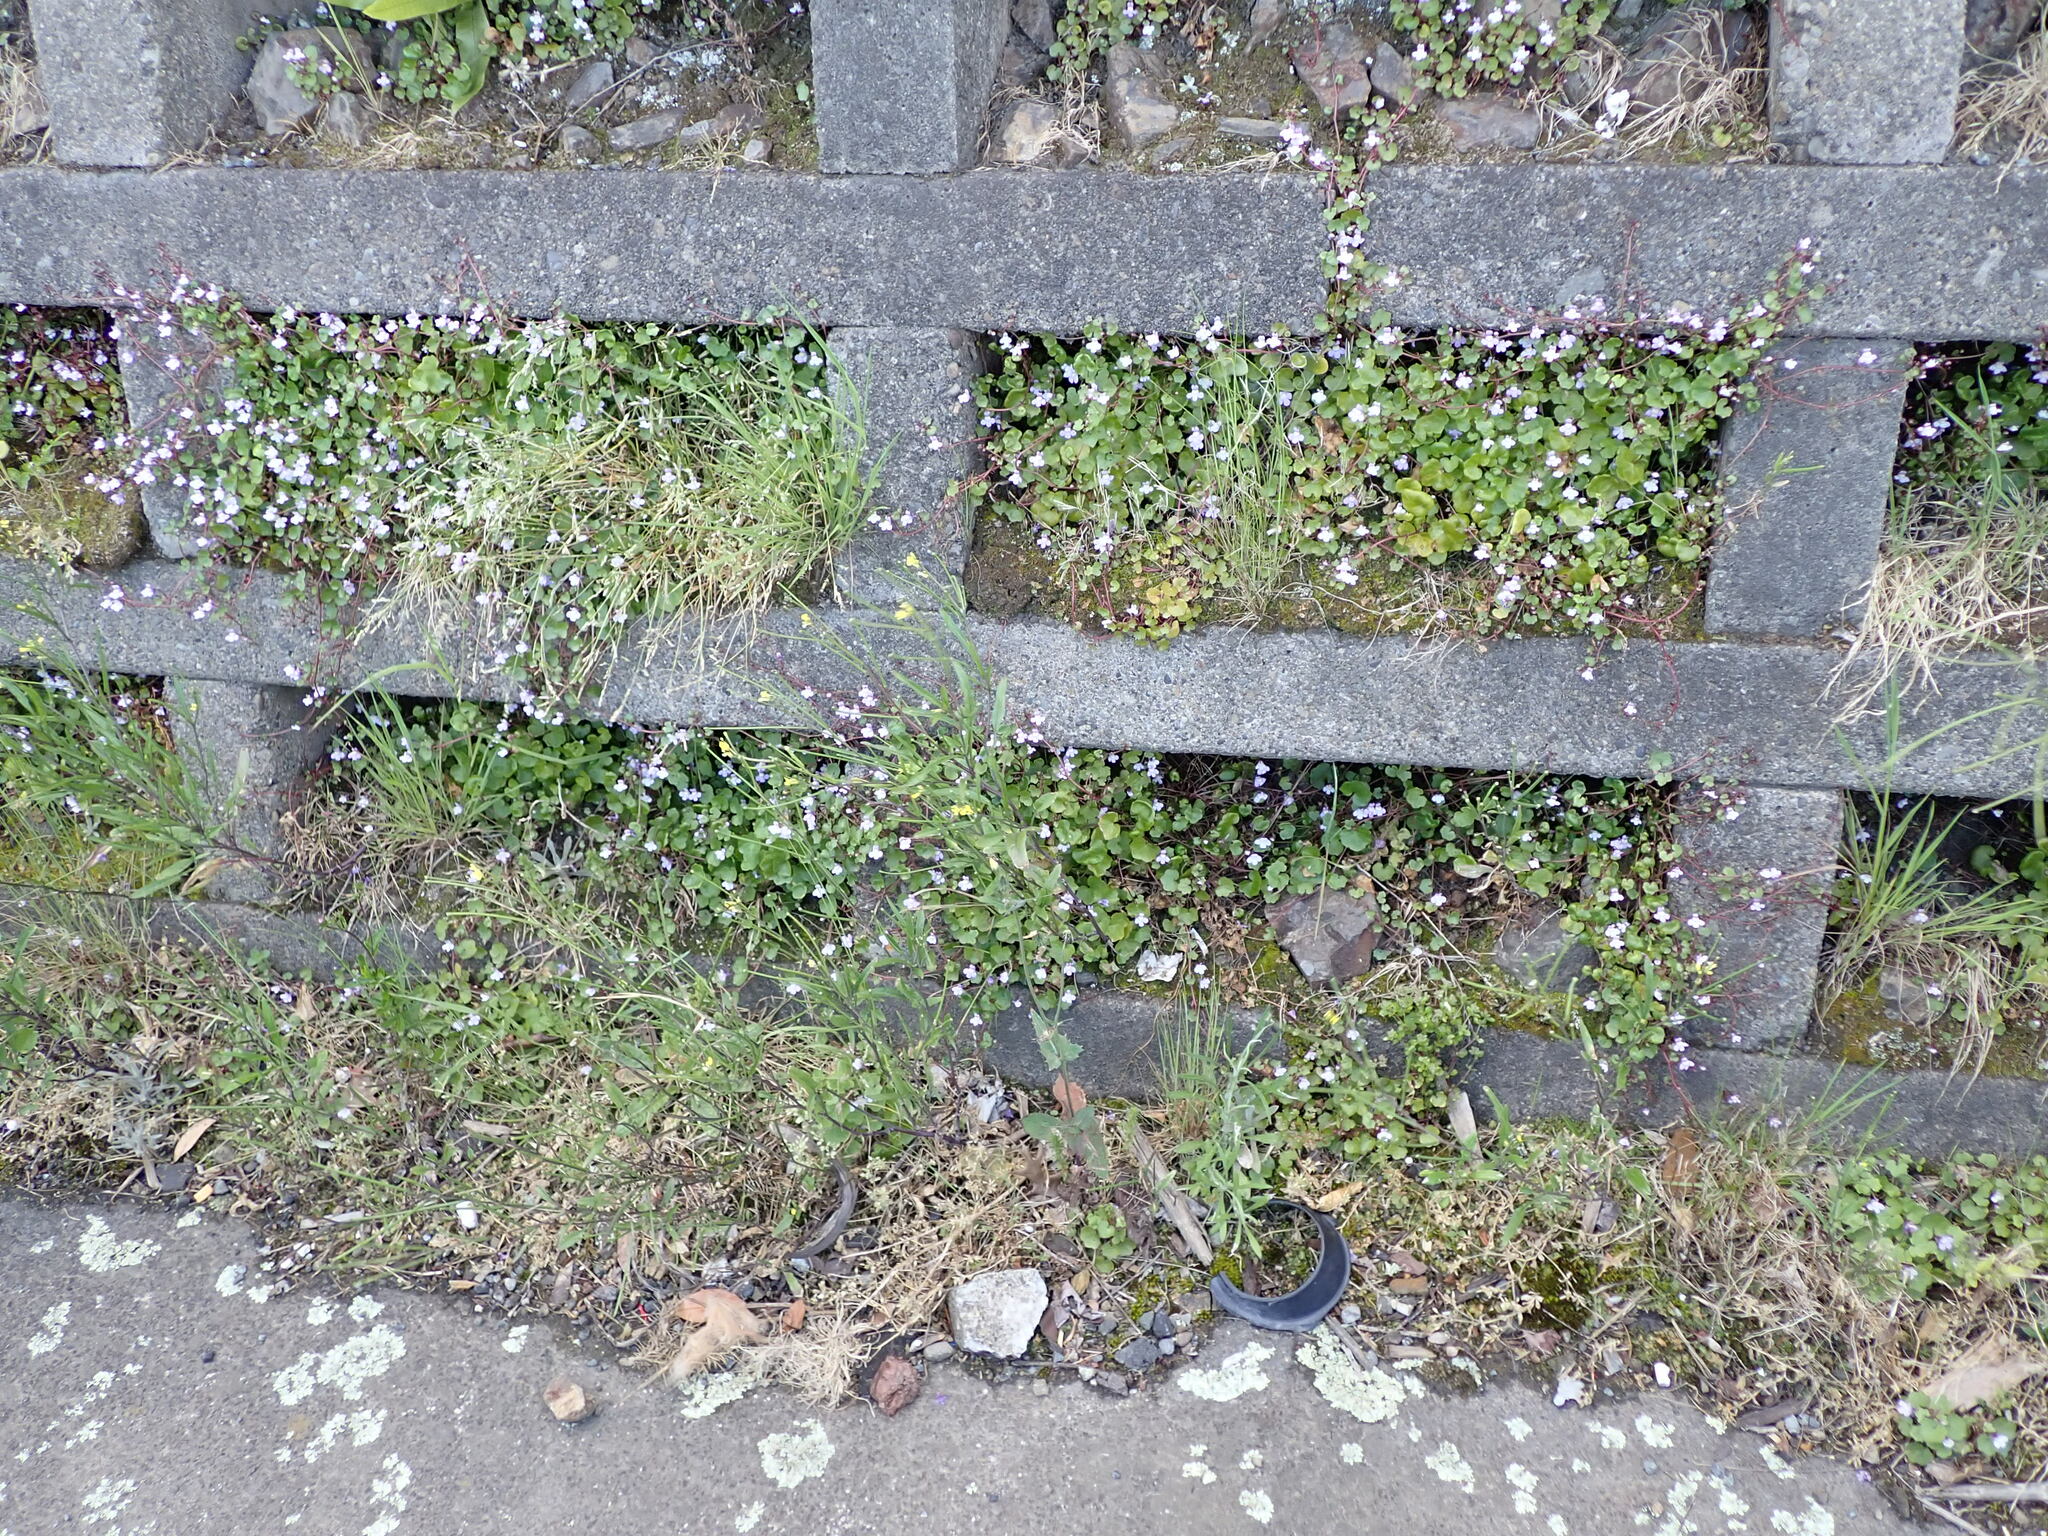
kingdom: Plantae
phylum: Tracheophyta
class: Magnoliopsida
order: Brassicales
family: Brassicaceae
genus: Sisymbrium
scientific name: Sisymbrium orientale
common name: Eastern rocket
